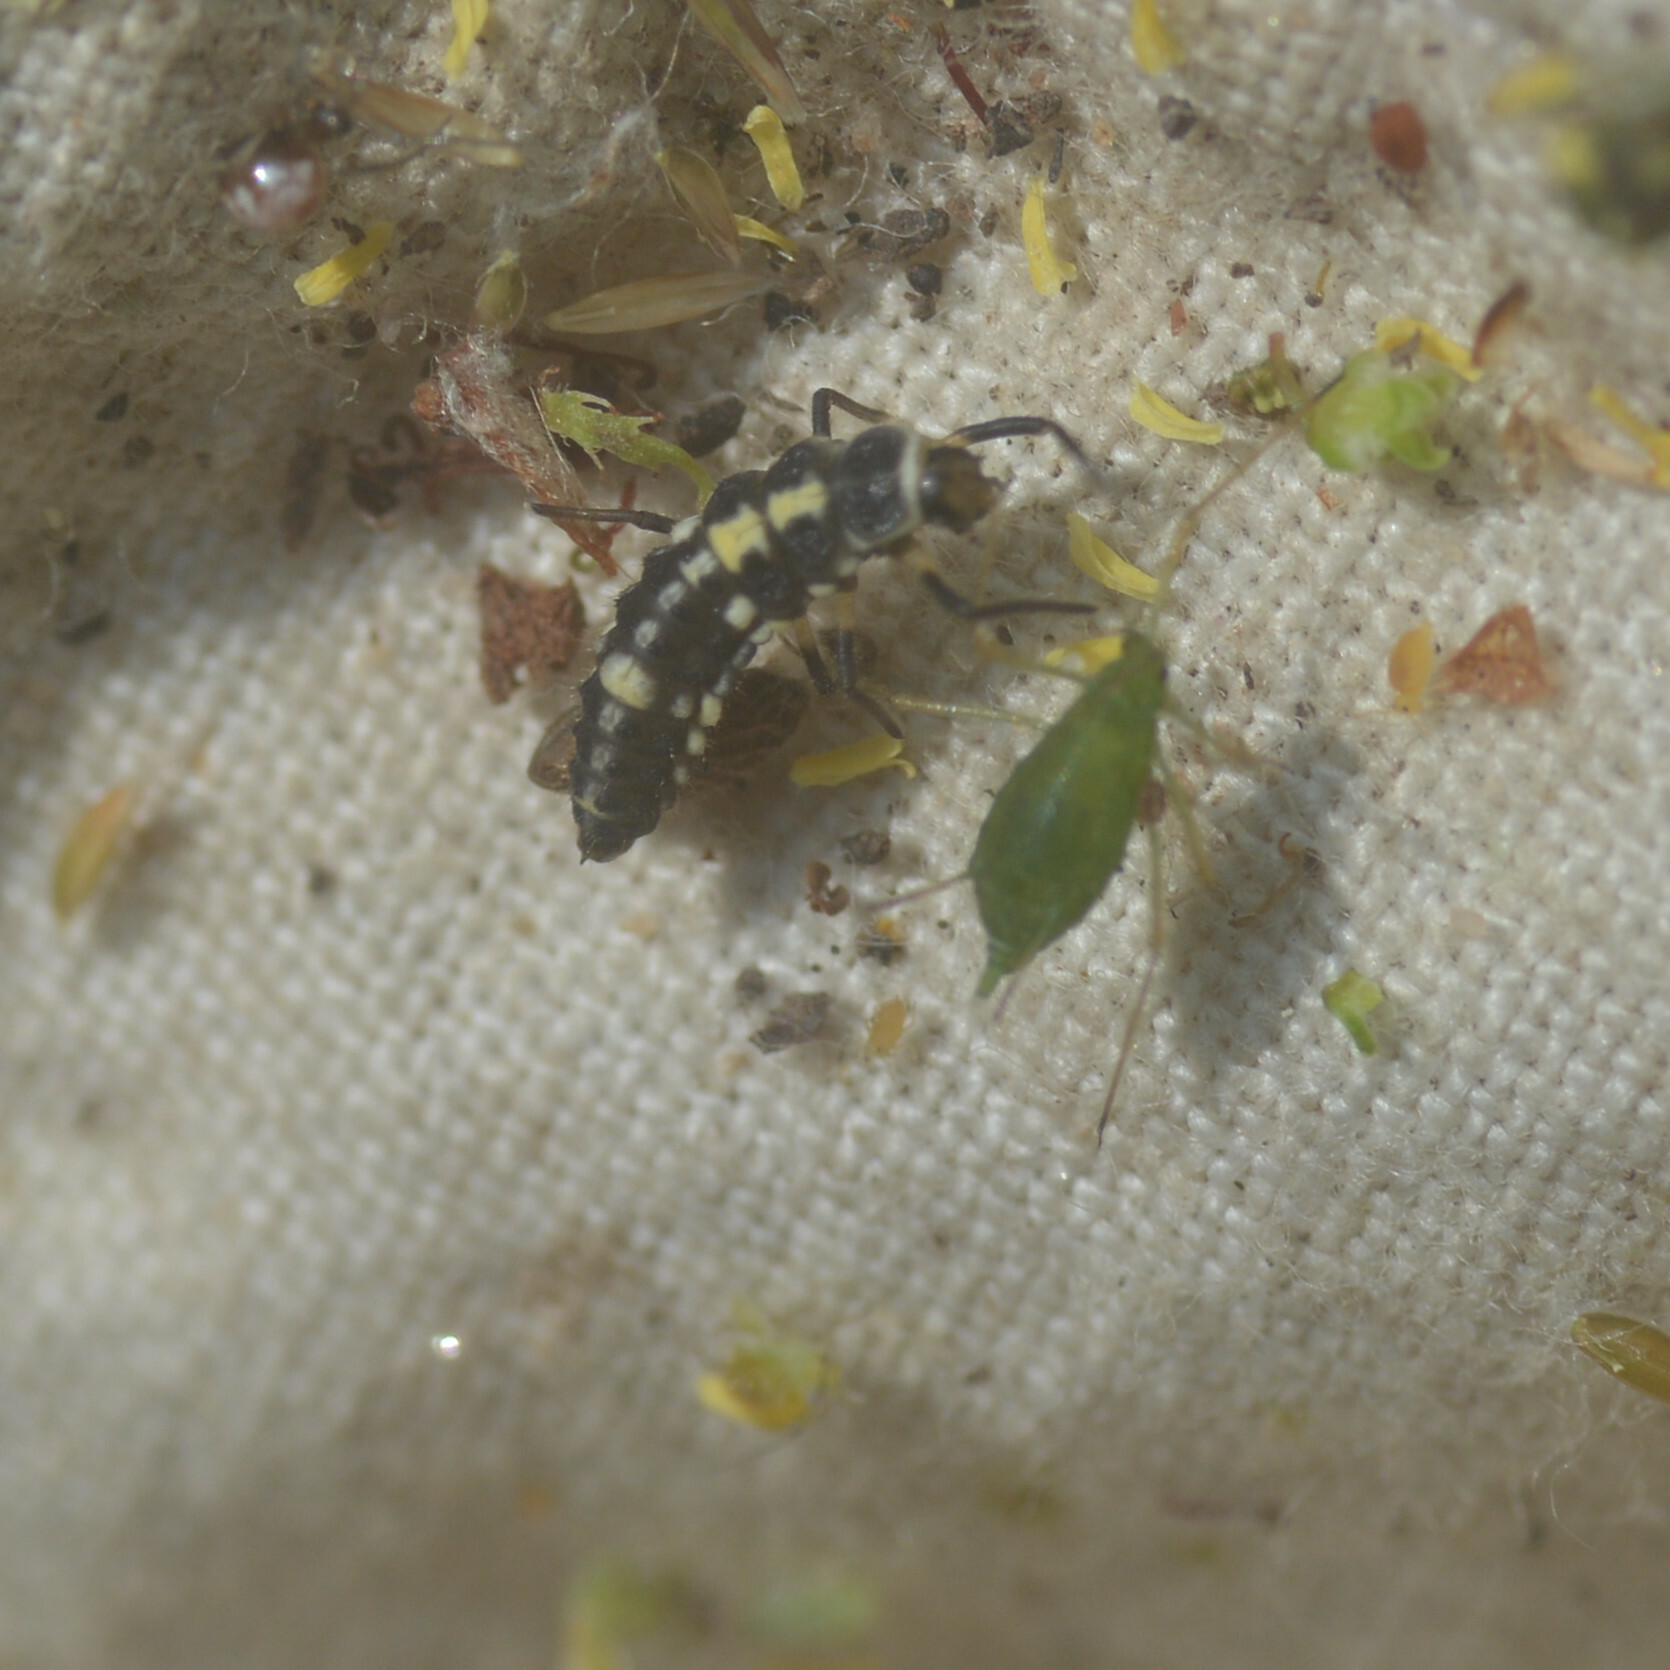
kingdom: Animalia
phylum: Arthropoda
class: Insecta
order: Coleoptera
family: Coccinellidae
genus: Propylaea
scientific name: Propylaea quatuordecimpunctata
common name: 14-spotted ladybird beetle
